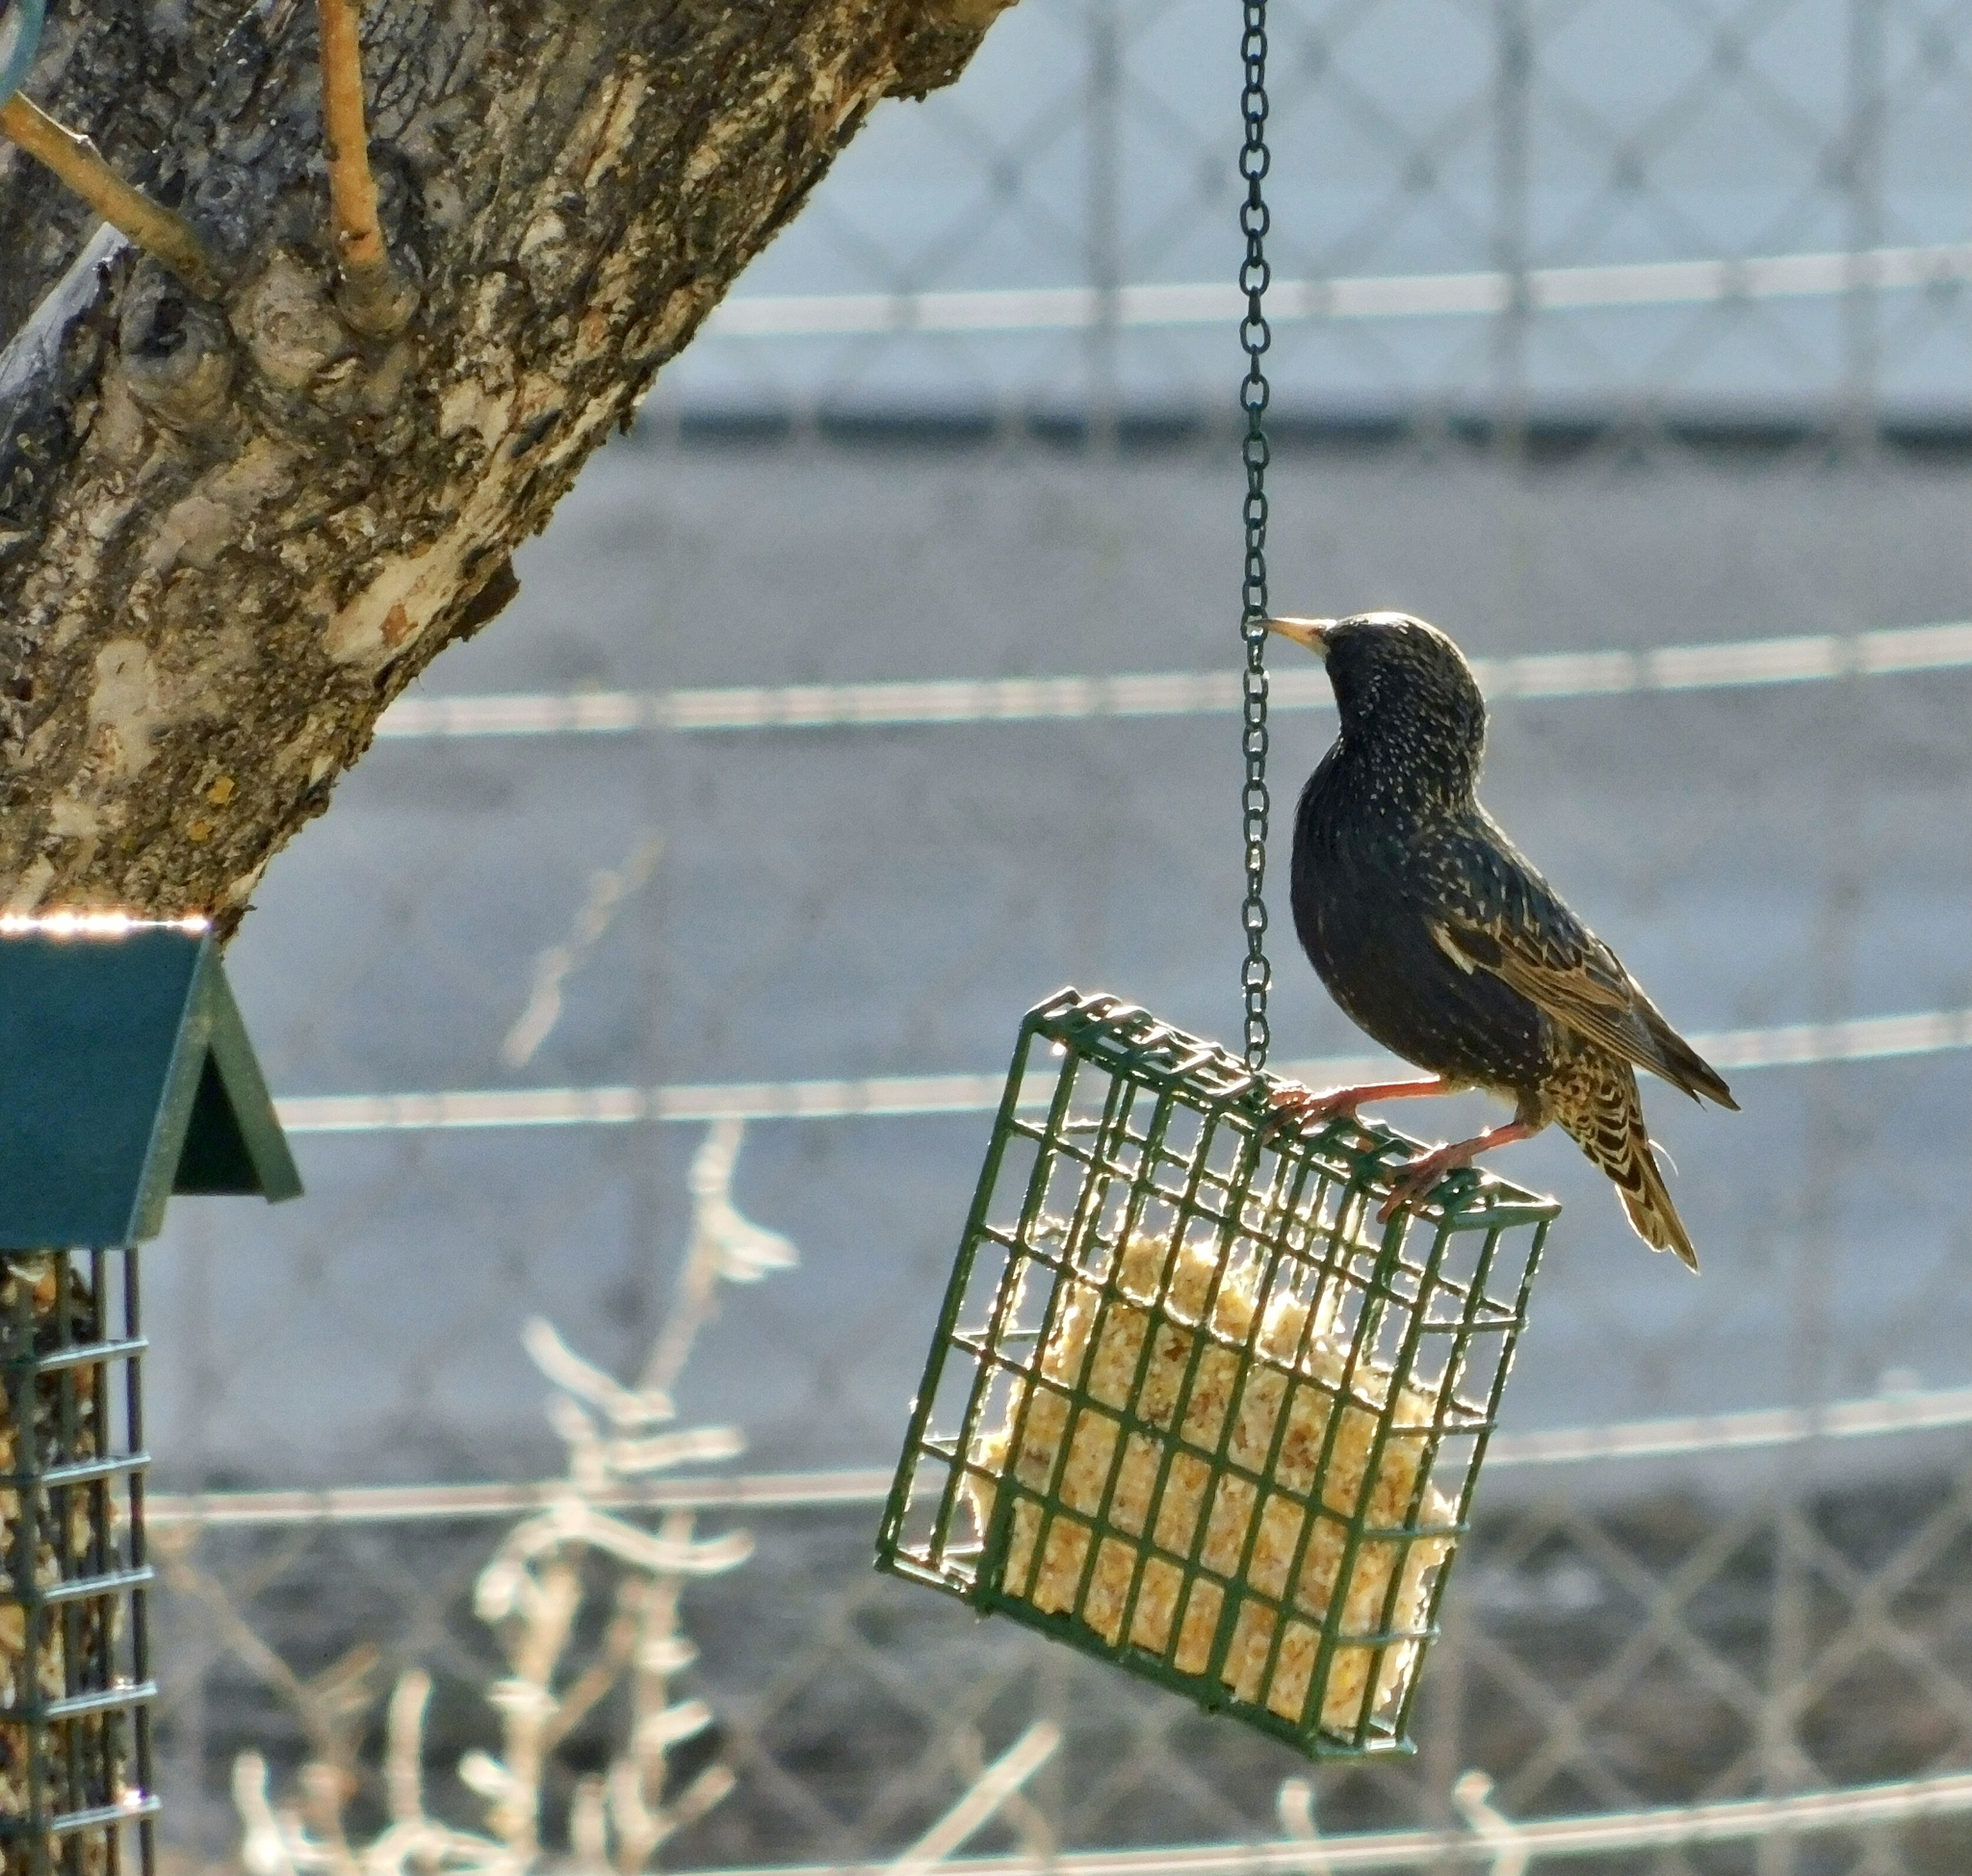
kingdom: Animalia
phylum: Chordata
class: Aves
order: Passeriformes
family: Sturnidae
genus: Sturnus
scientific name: Sturnus vulgaris
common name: Common starling
